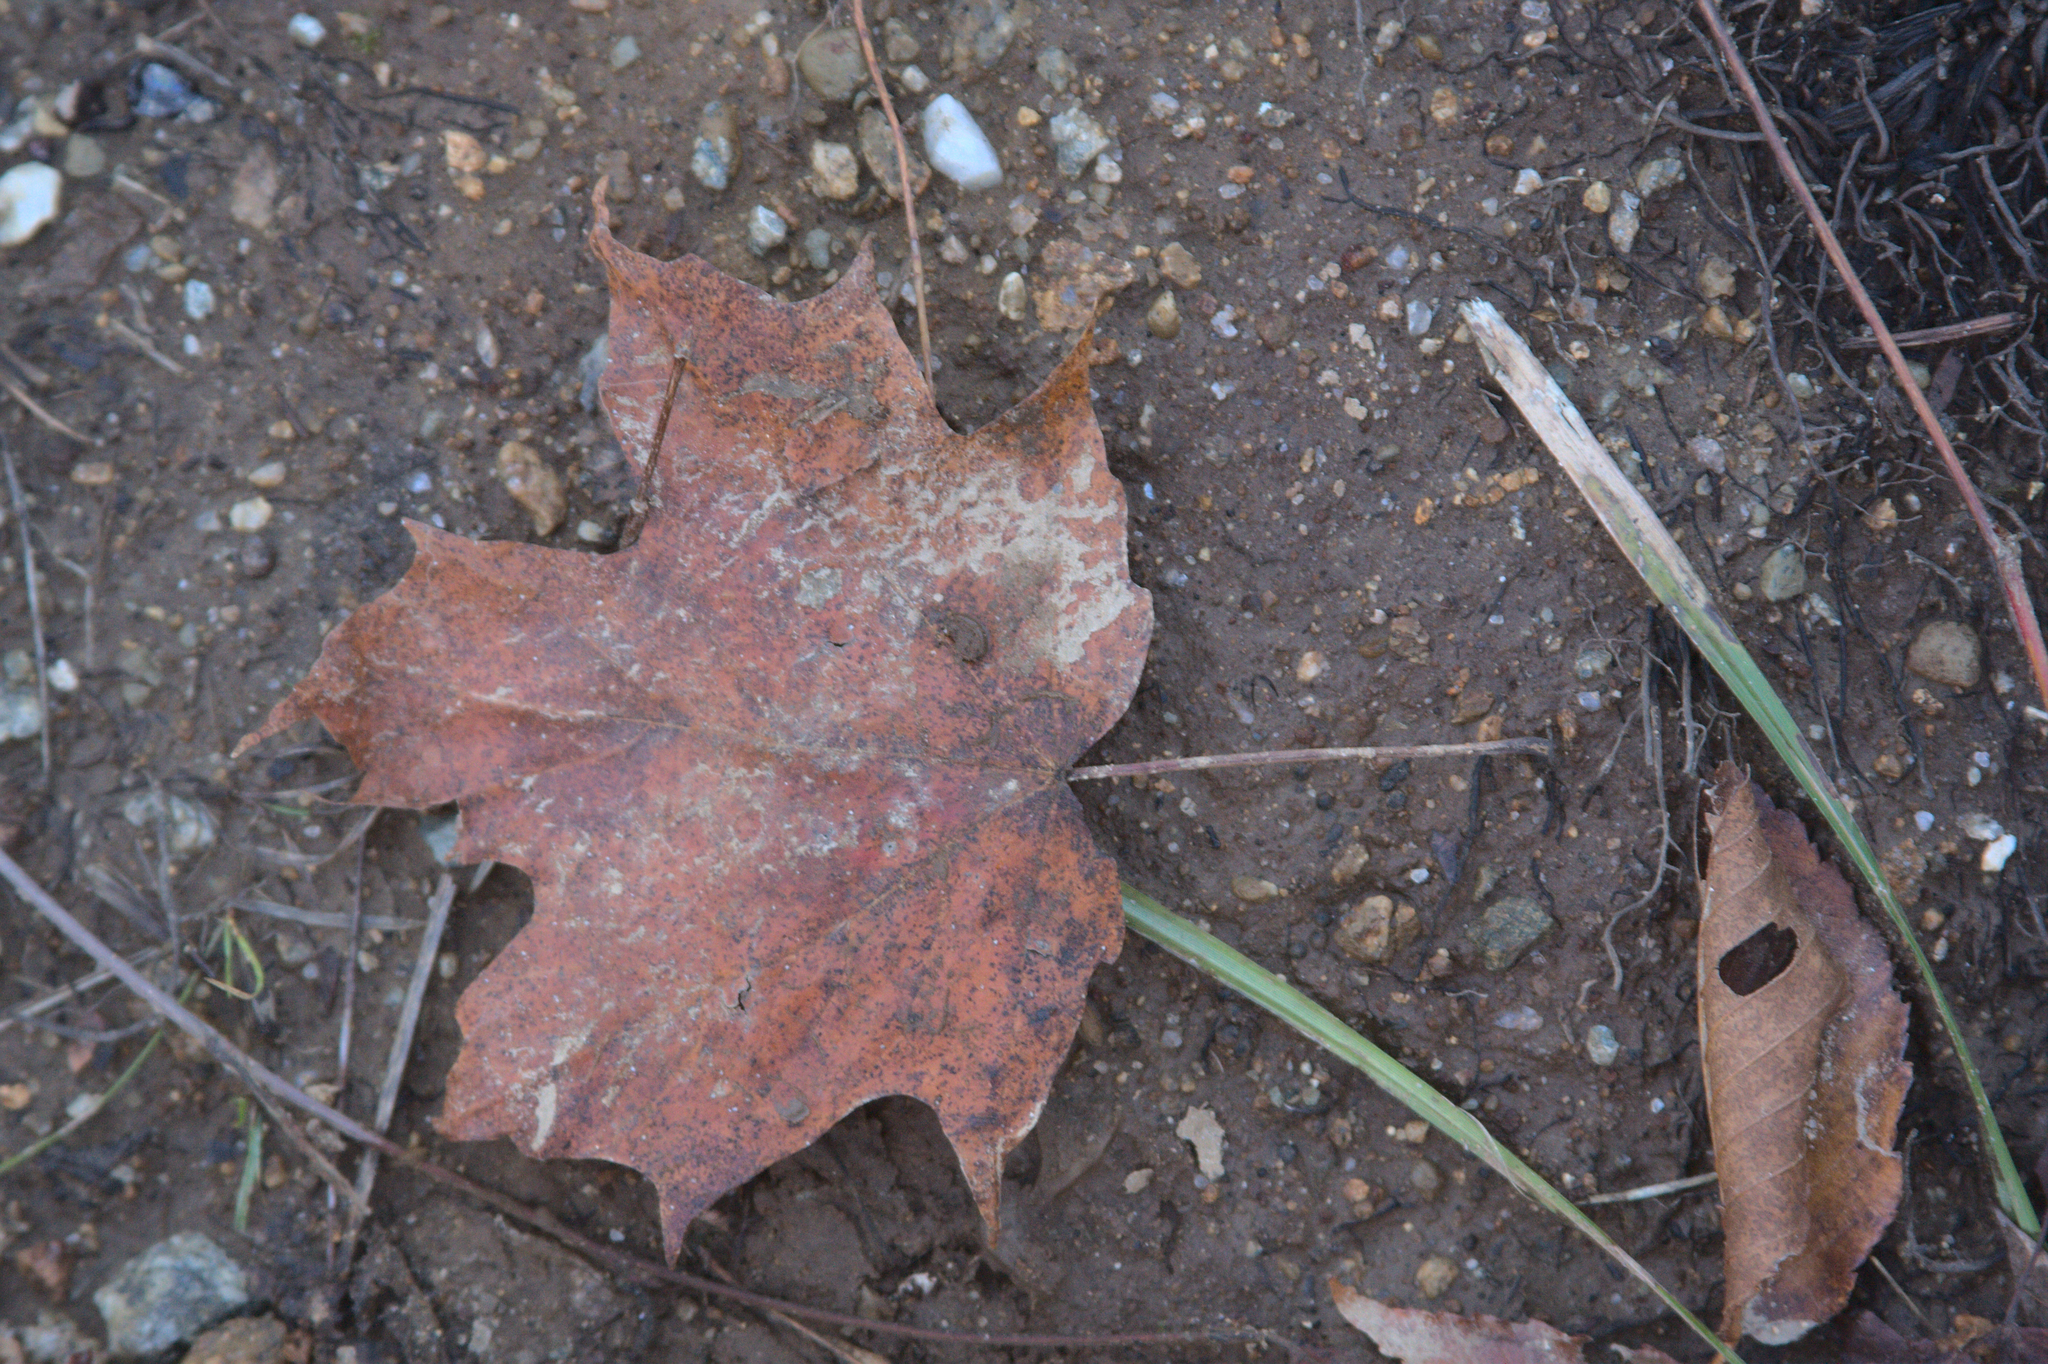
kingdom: Plantae
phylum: Tracheophyta
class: Magnoliopsida
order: Sapindales
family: Sapindaceae
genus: Acer
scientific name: Acer saccharum
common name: Sugar maple
